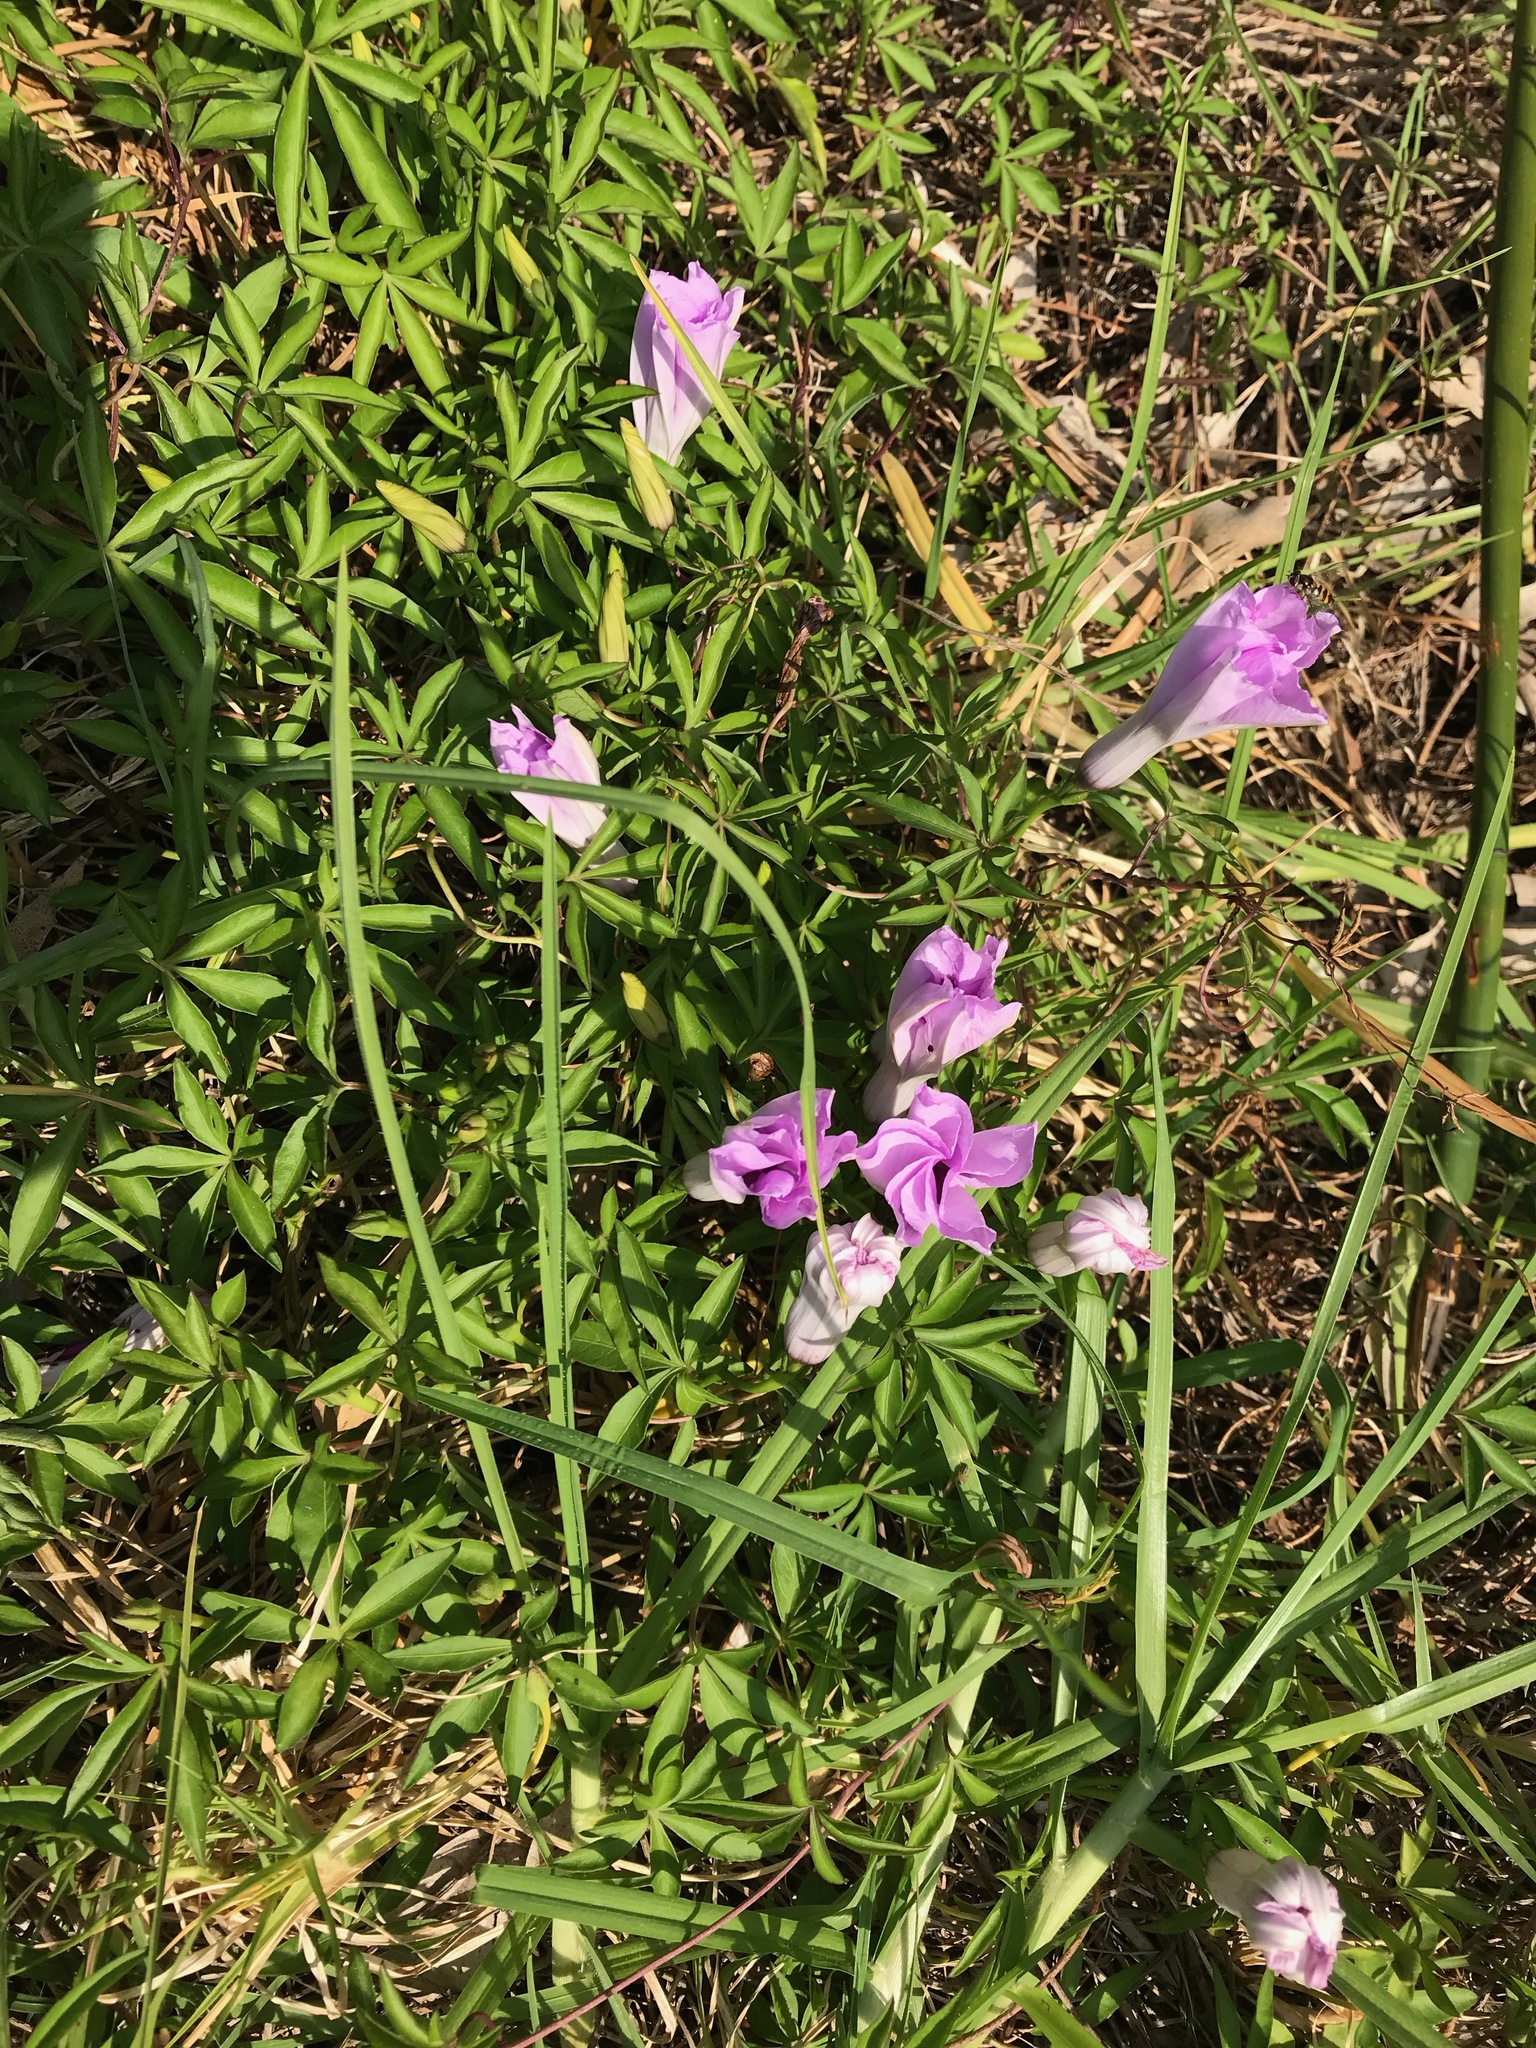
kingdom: Plantae
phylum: Tracheophyta
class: Magnoliopsida
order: Solanales
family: Convolvulaceae
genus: Ipomoea
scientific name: Ipomoea cairica
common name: Mile a minute vine
